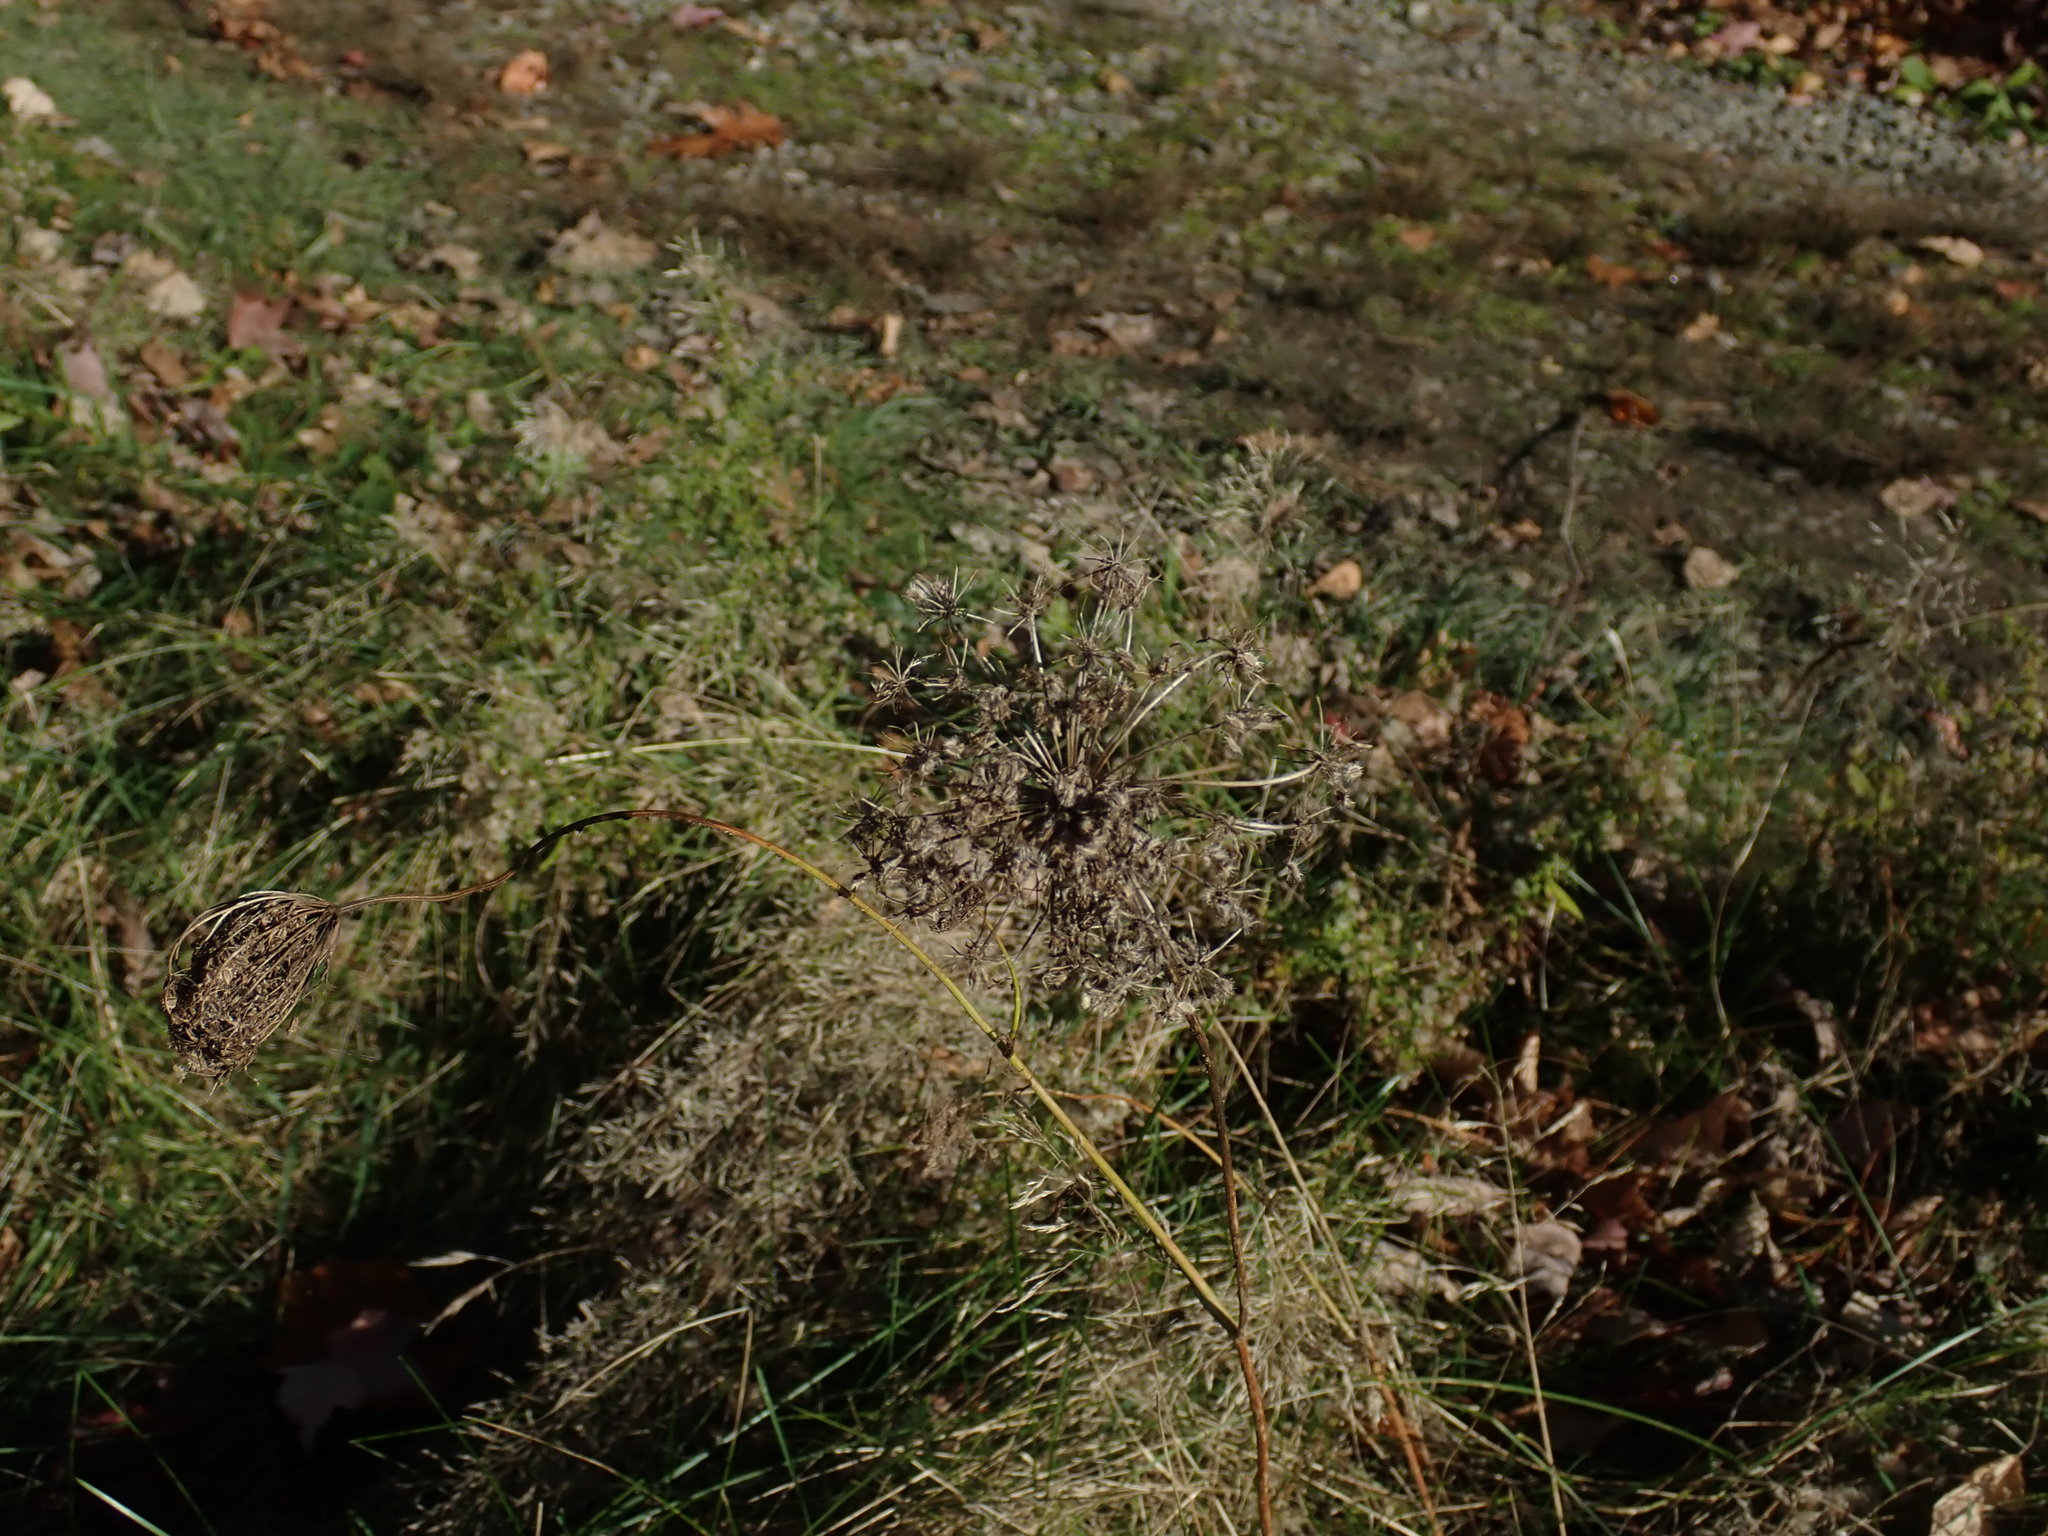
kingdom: Plantae
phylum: Tracheophyta
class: Magnoliopsida
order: Apiales
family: Apiaceae
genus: Daucus
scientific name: Daucus carota
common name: Wild carrot
